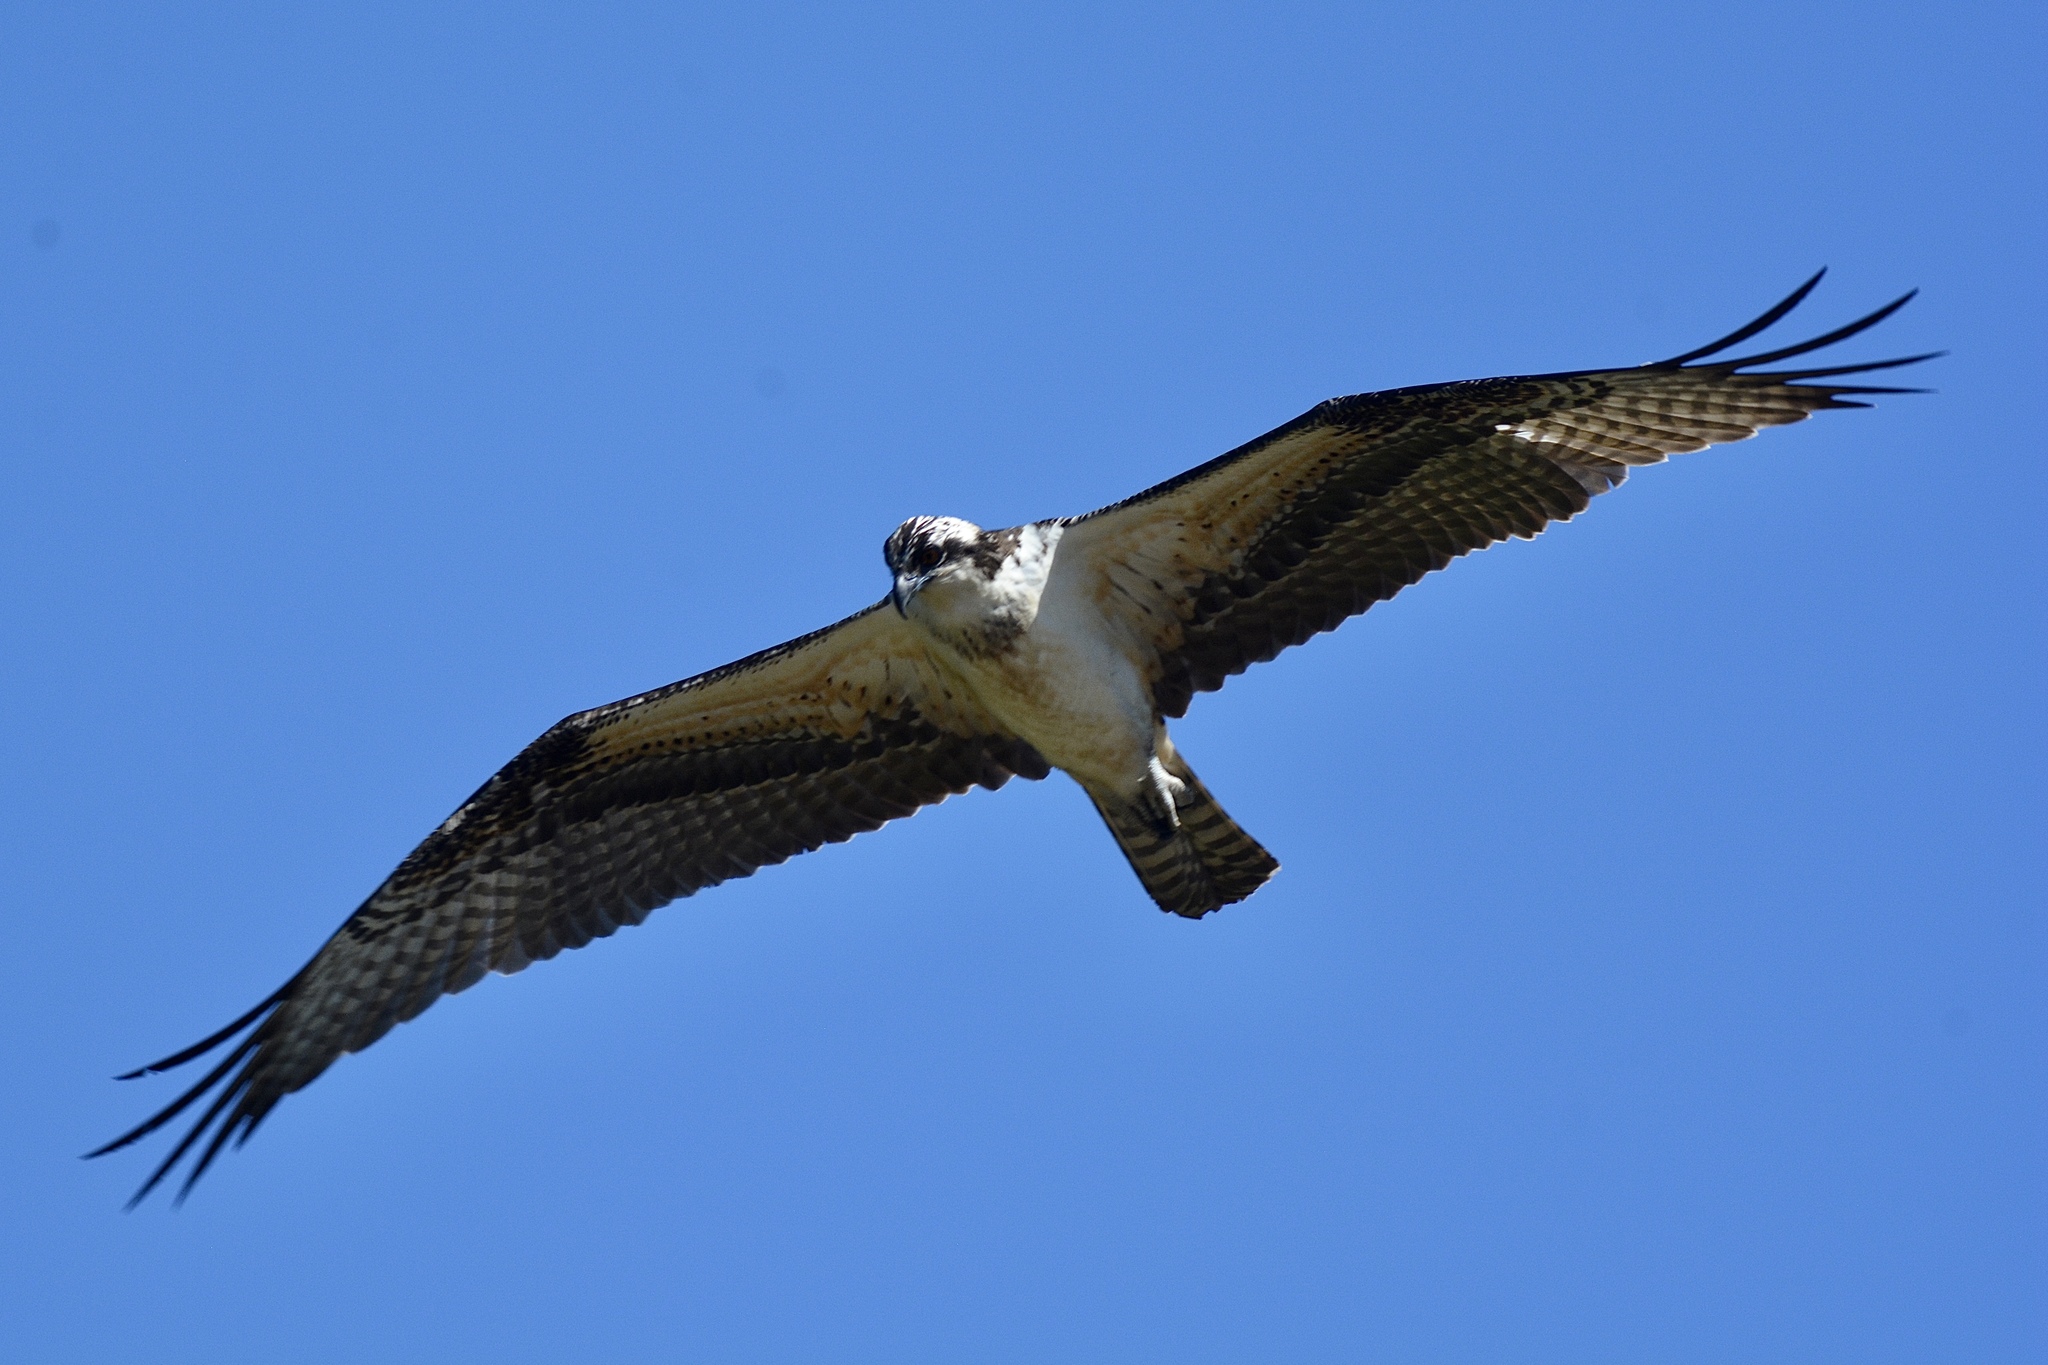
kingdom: Animalia
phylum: Chordata
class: Aves
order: Accipitriformes
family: Pandionidae
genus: Pandion
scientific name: Pandion haliaetus
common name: Osprey
